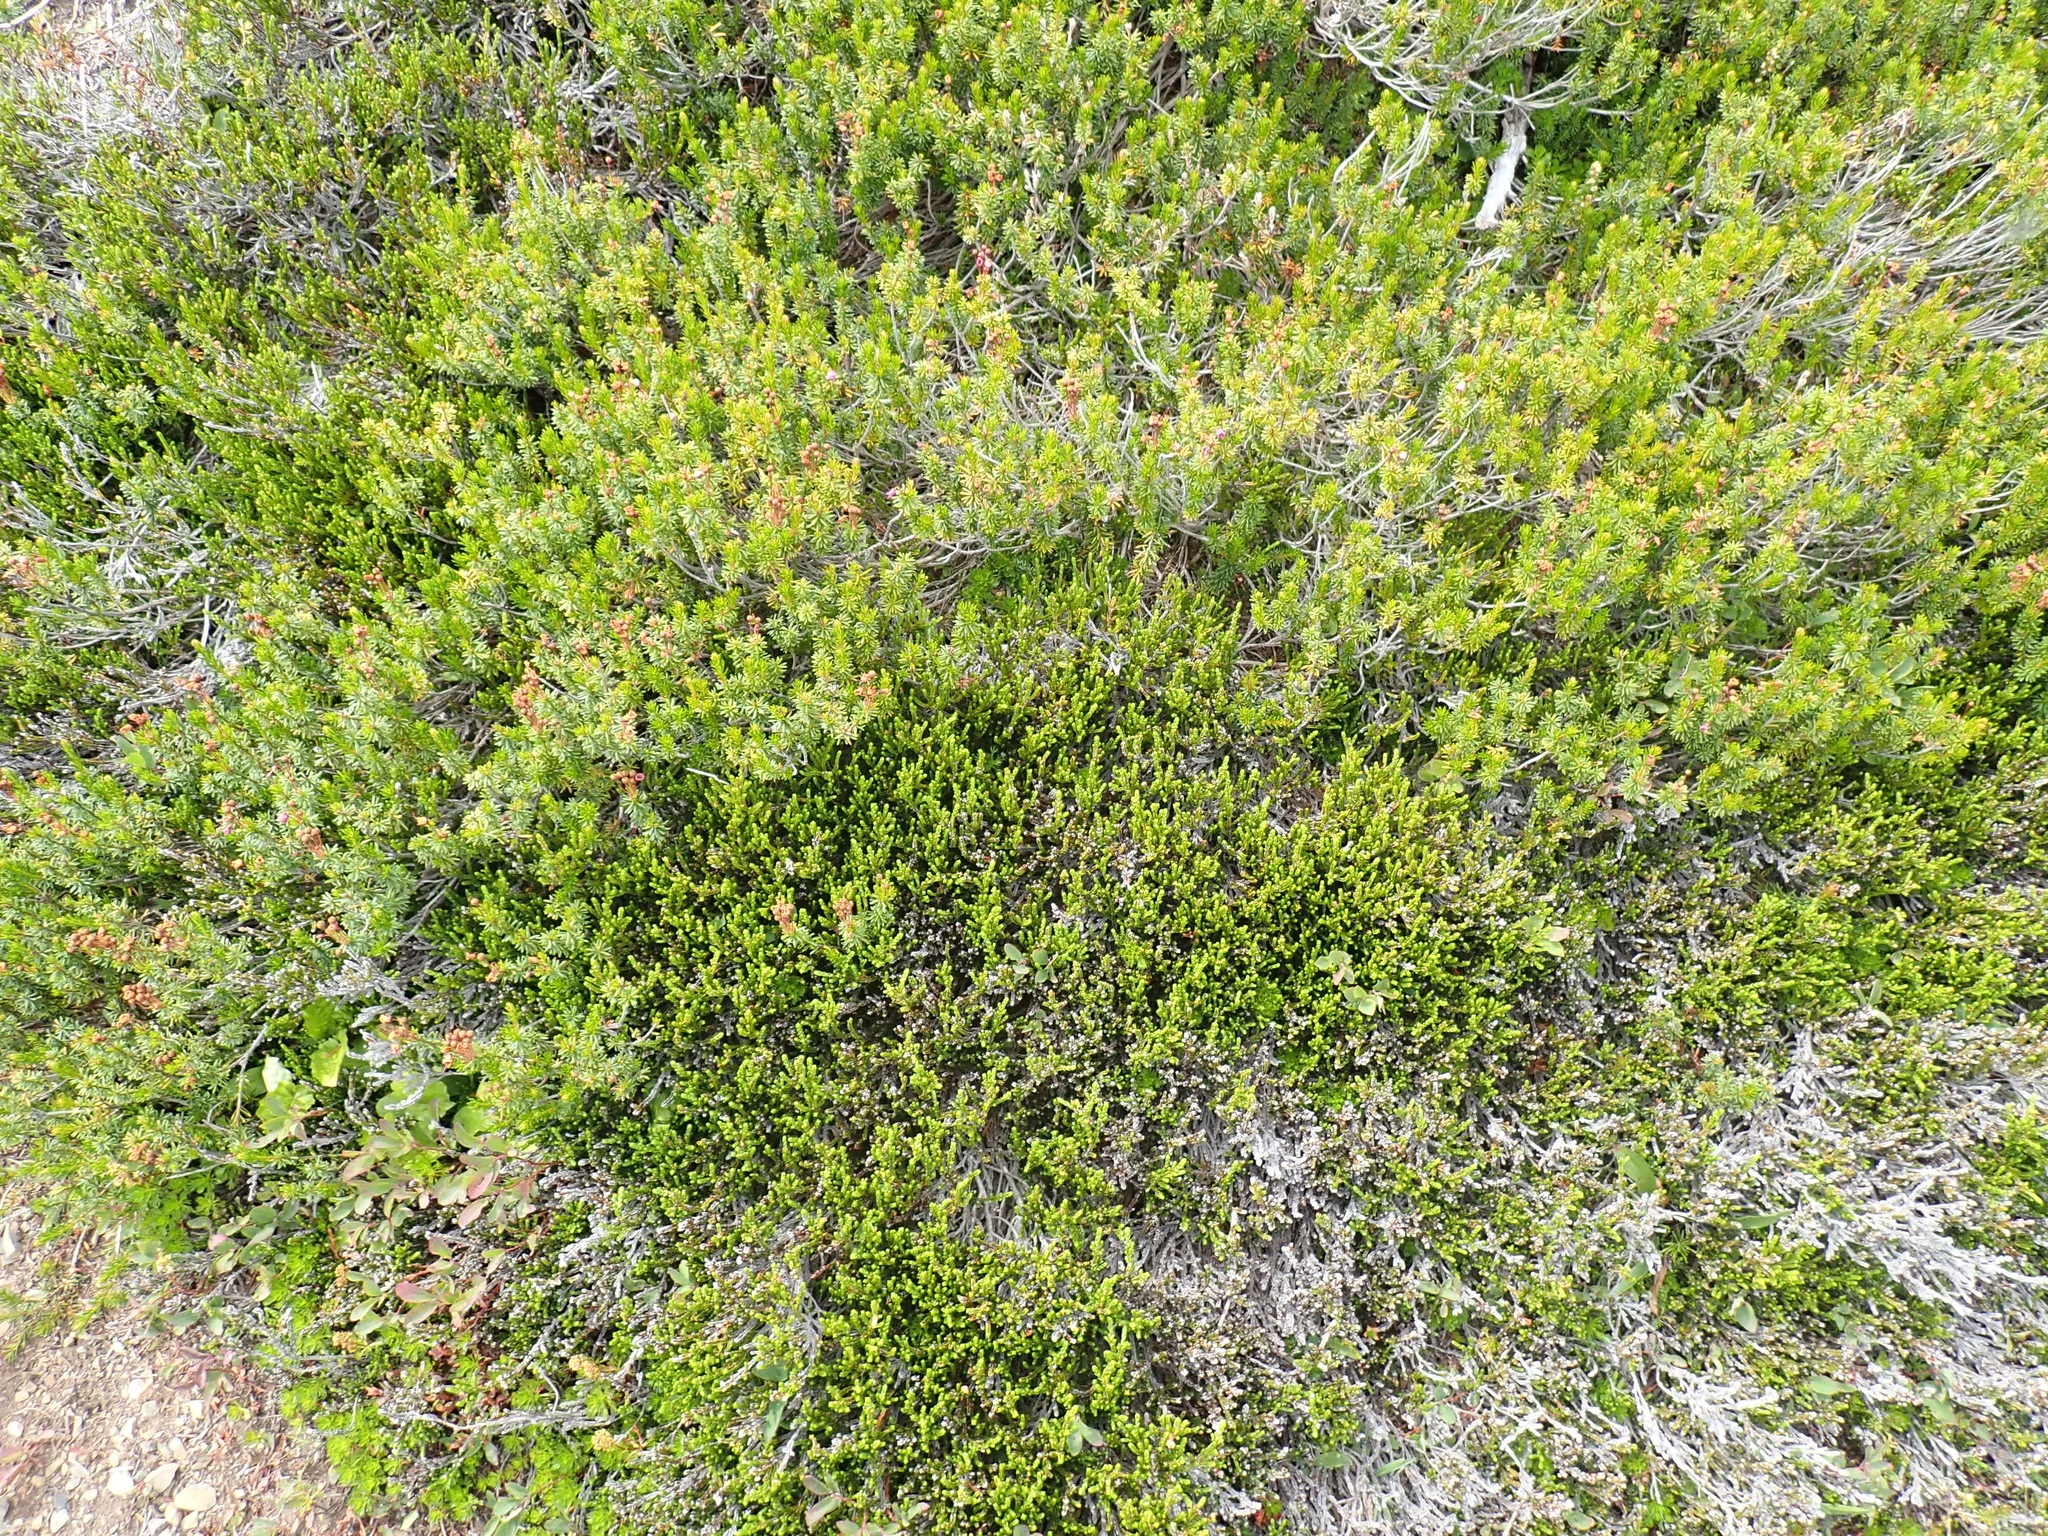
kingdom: Plantae
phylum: Tracheophyta
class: Magnoliopsida
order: Ericales
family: Ericaceae
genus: Phyllodoce
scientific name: Phyllodoce empetriformis
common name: Pink mountain heather
